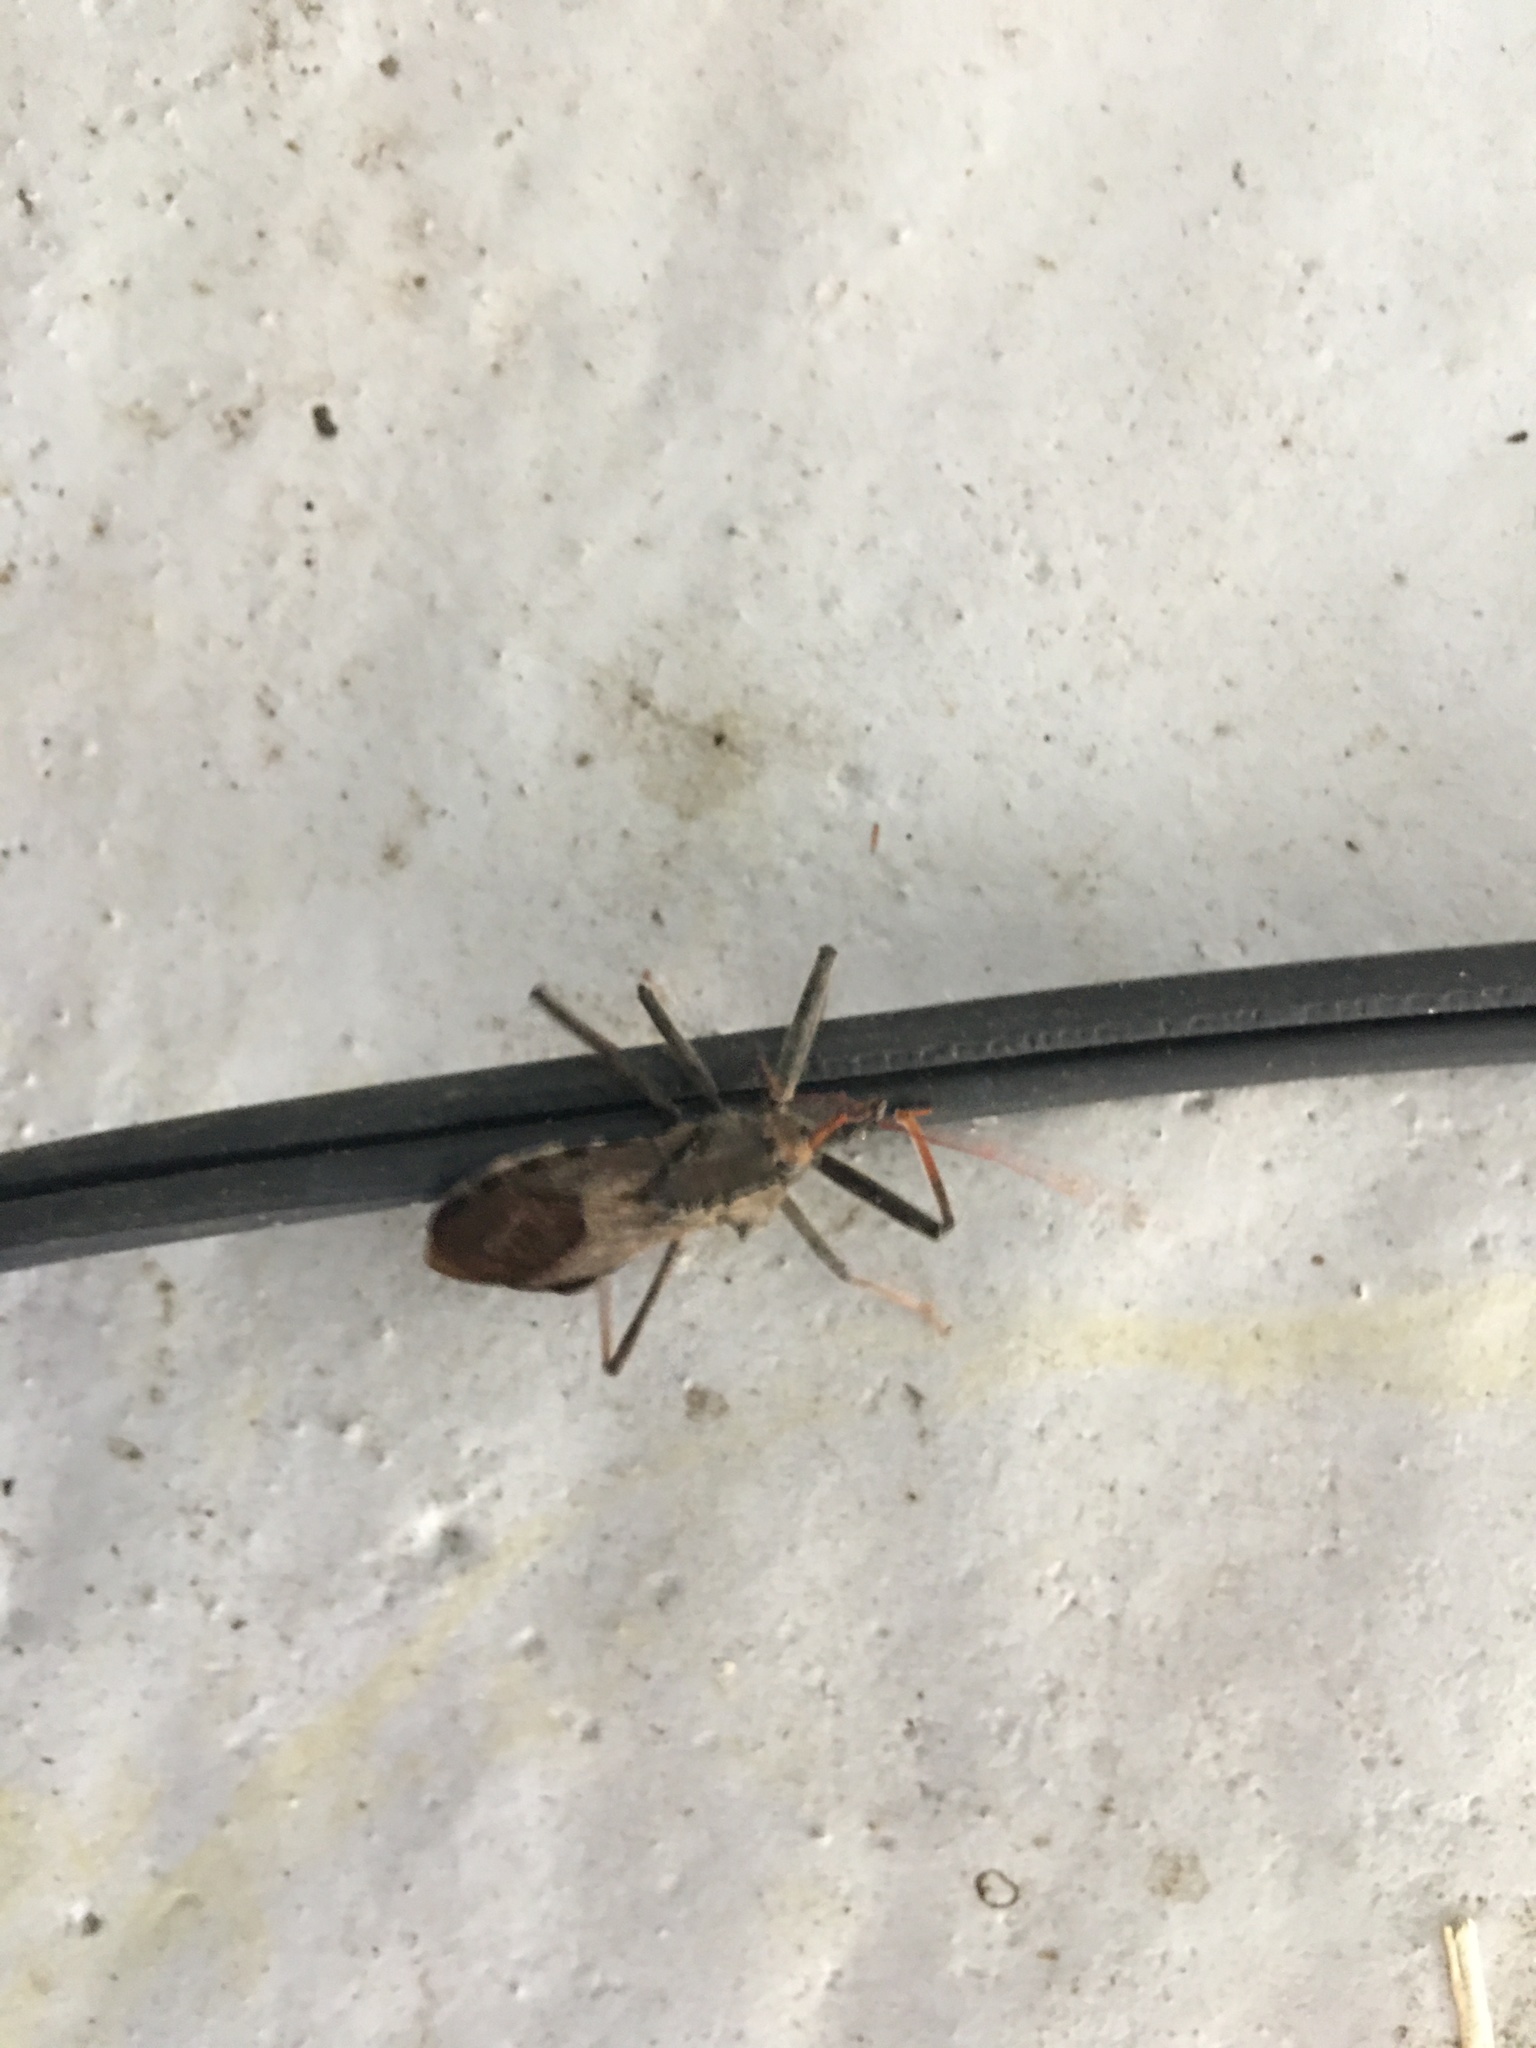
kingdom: Animalia
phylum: Arthropoda
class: Insecta
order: Hemiptera
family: Reduviidae
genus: Arilus
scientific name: Arilus cristatus
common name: North american wheel bug
